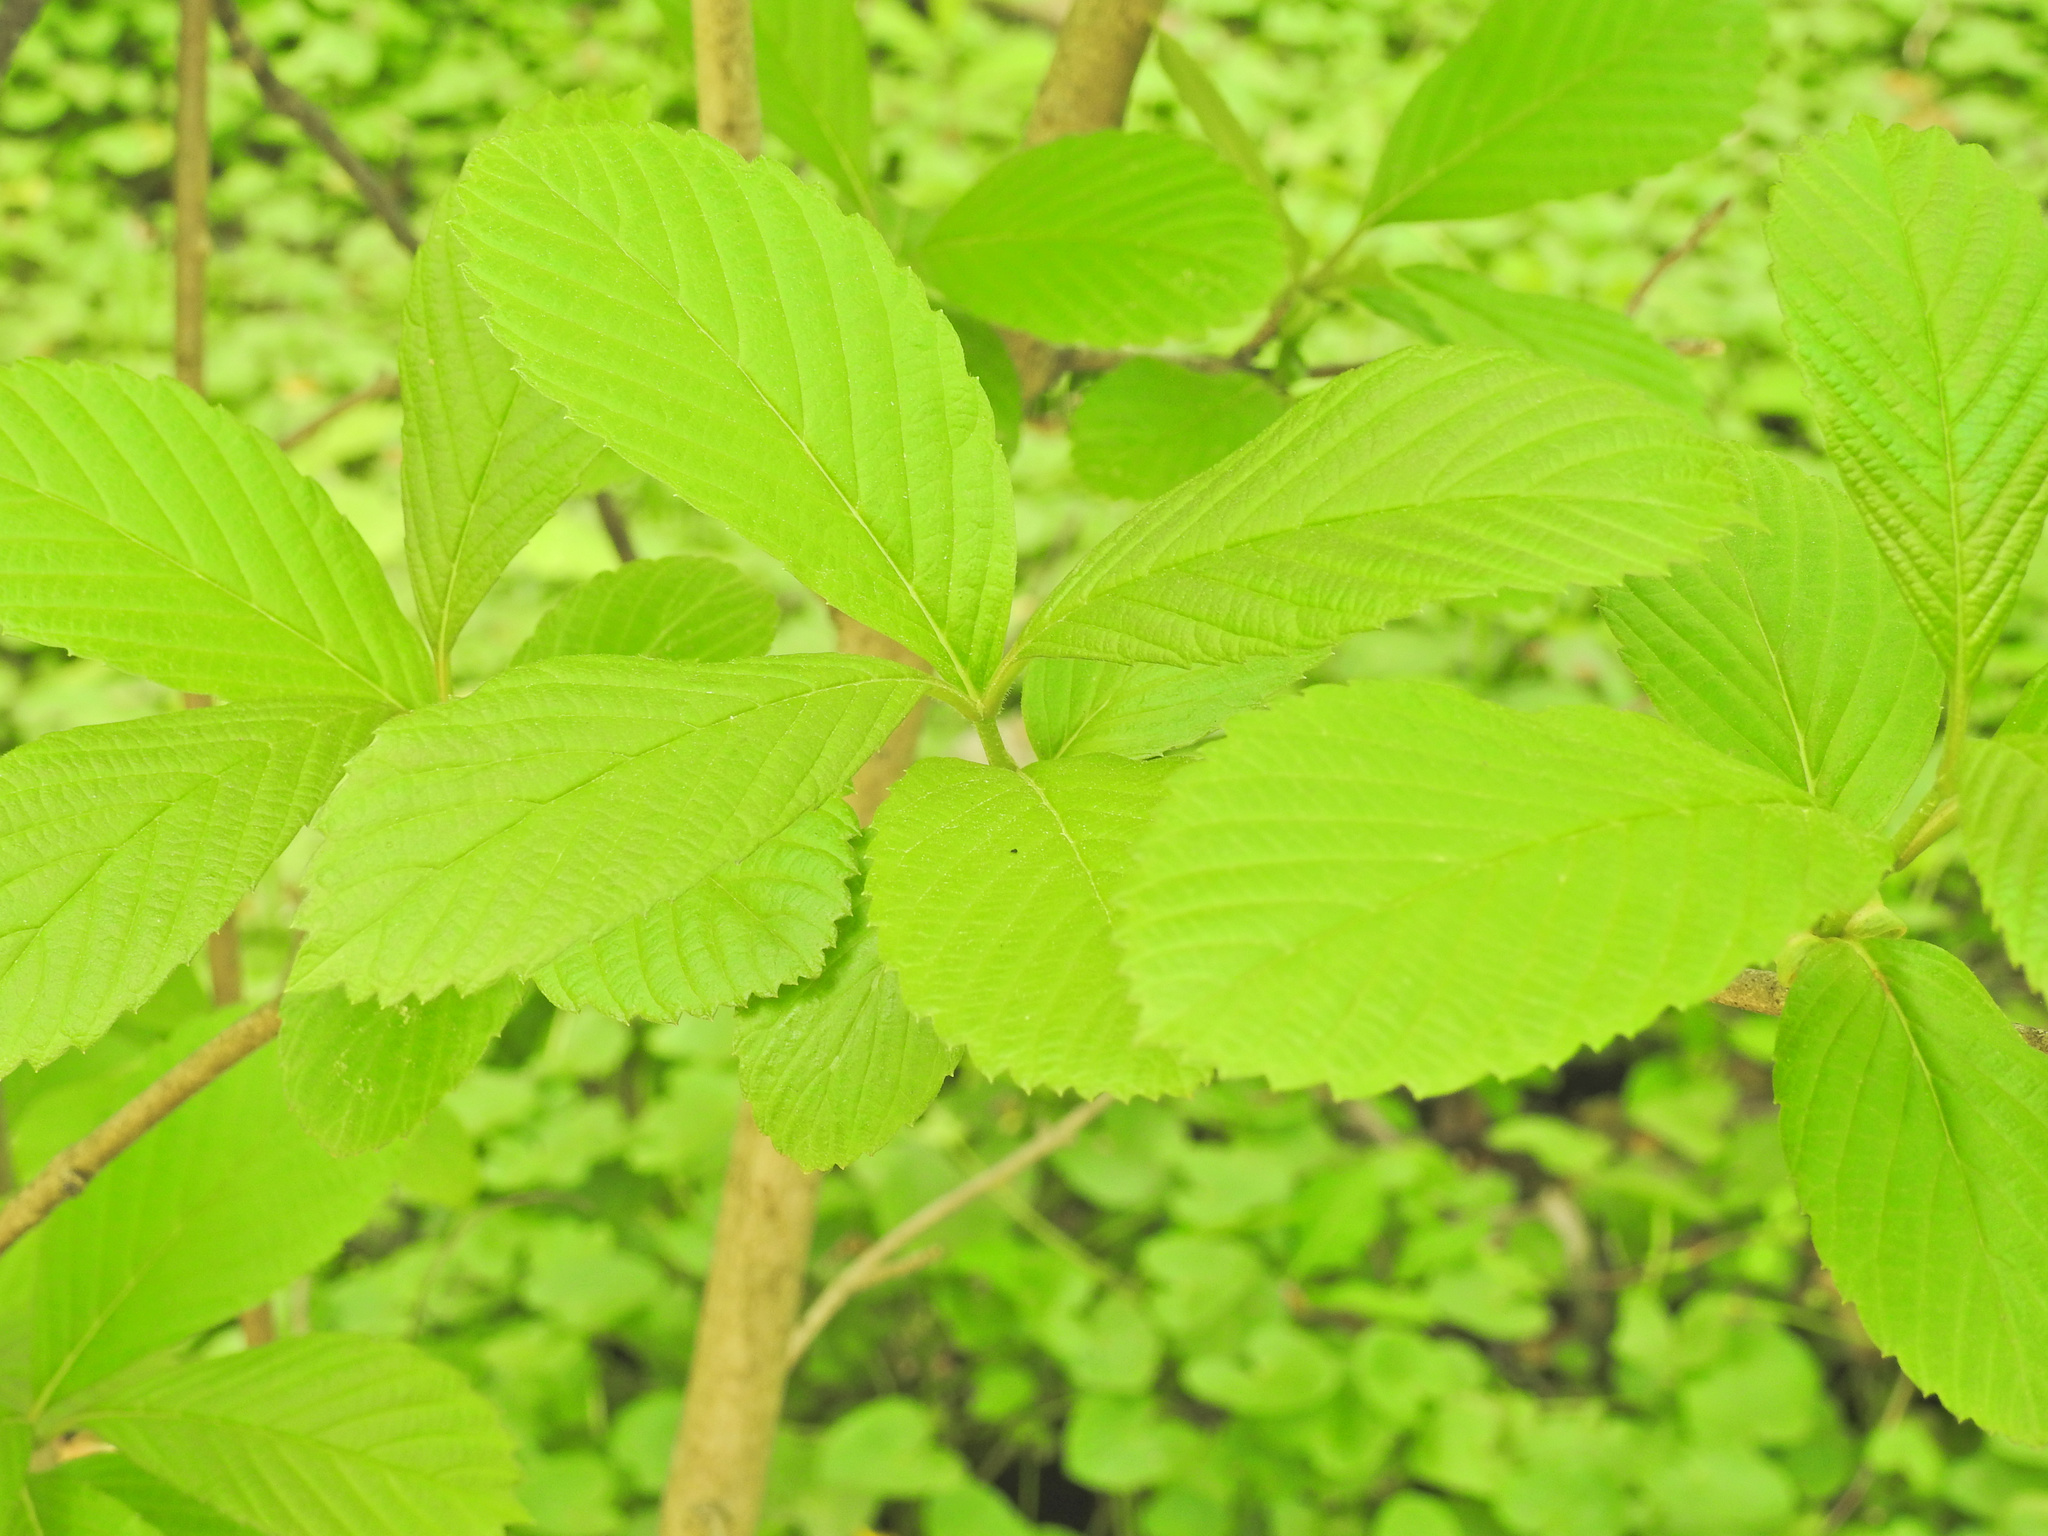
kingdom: Plantae
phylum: Tracheophyta
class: Magnoliopsida
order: Dipsacales
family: Viburnaceae
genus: Viburnum
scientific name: Viburnum sieboldii
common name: Siebold's arrowwood
